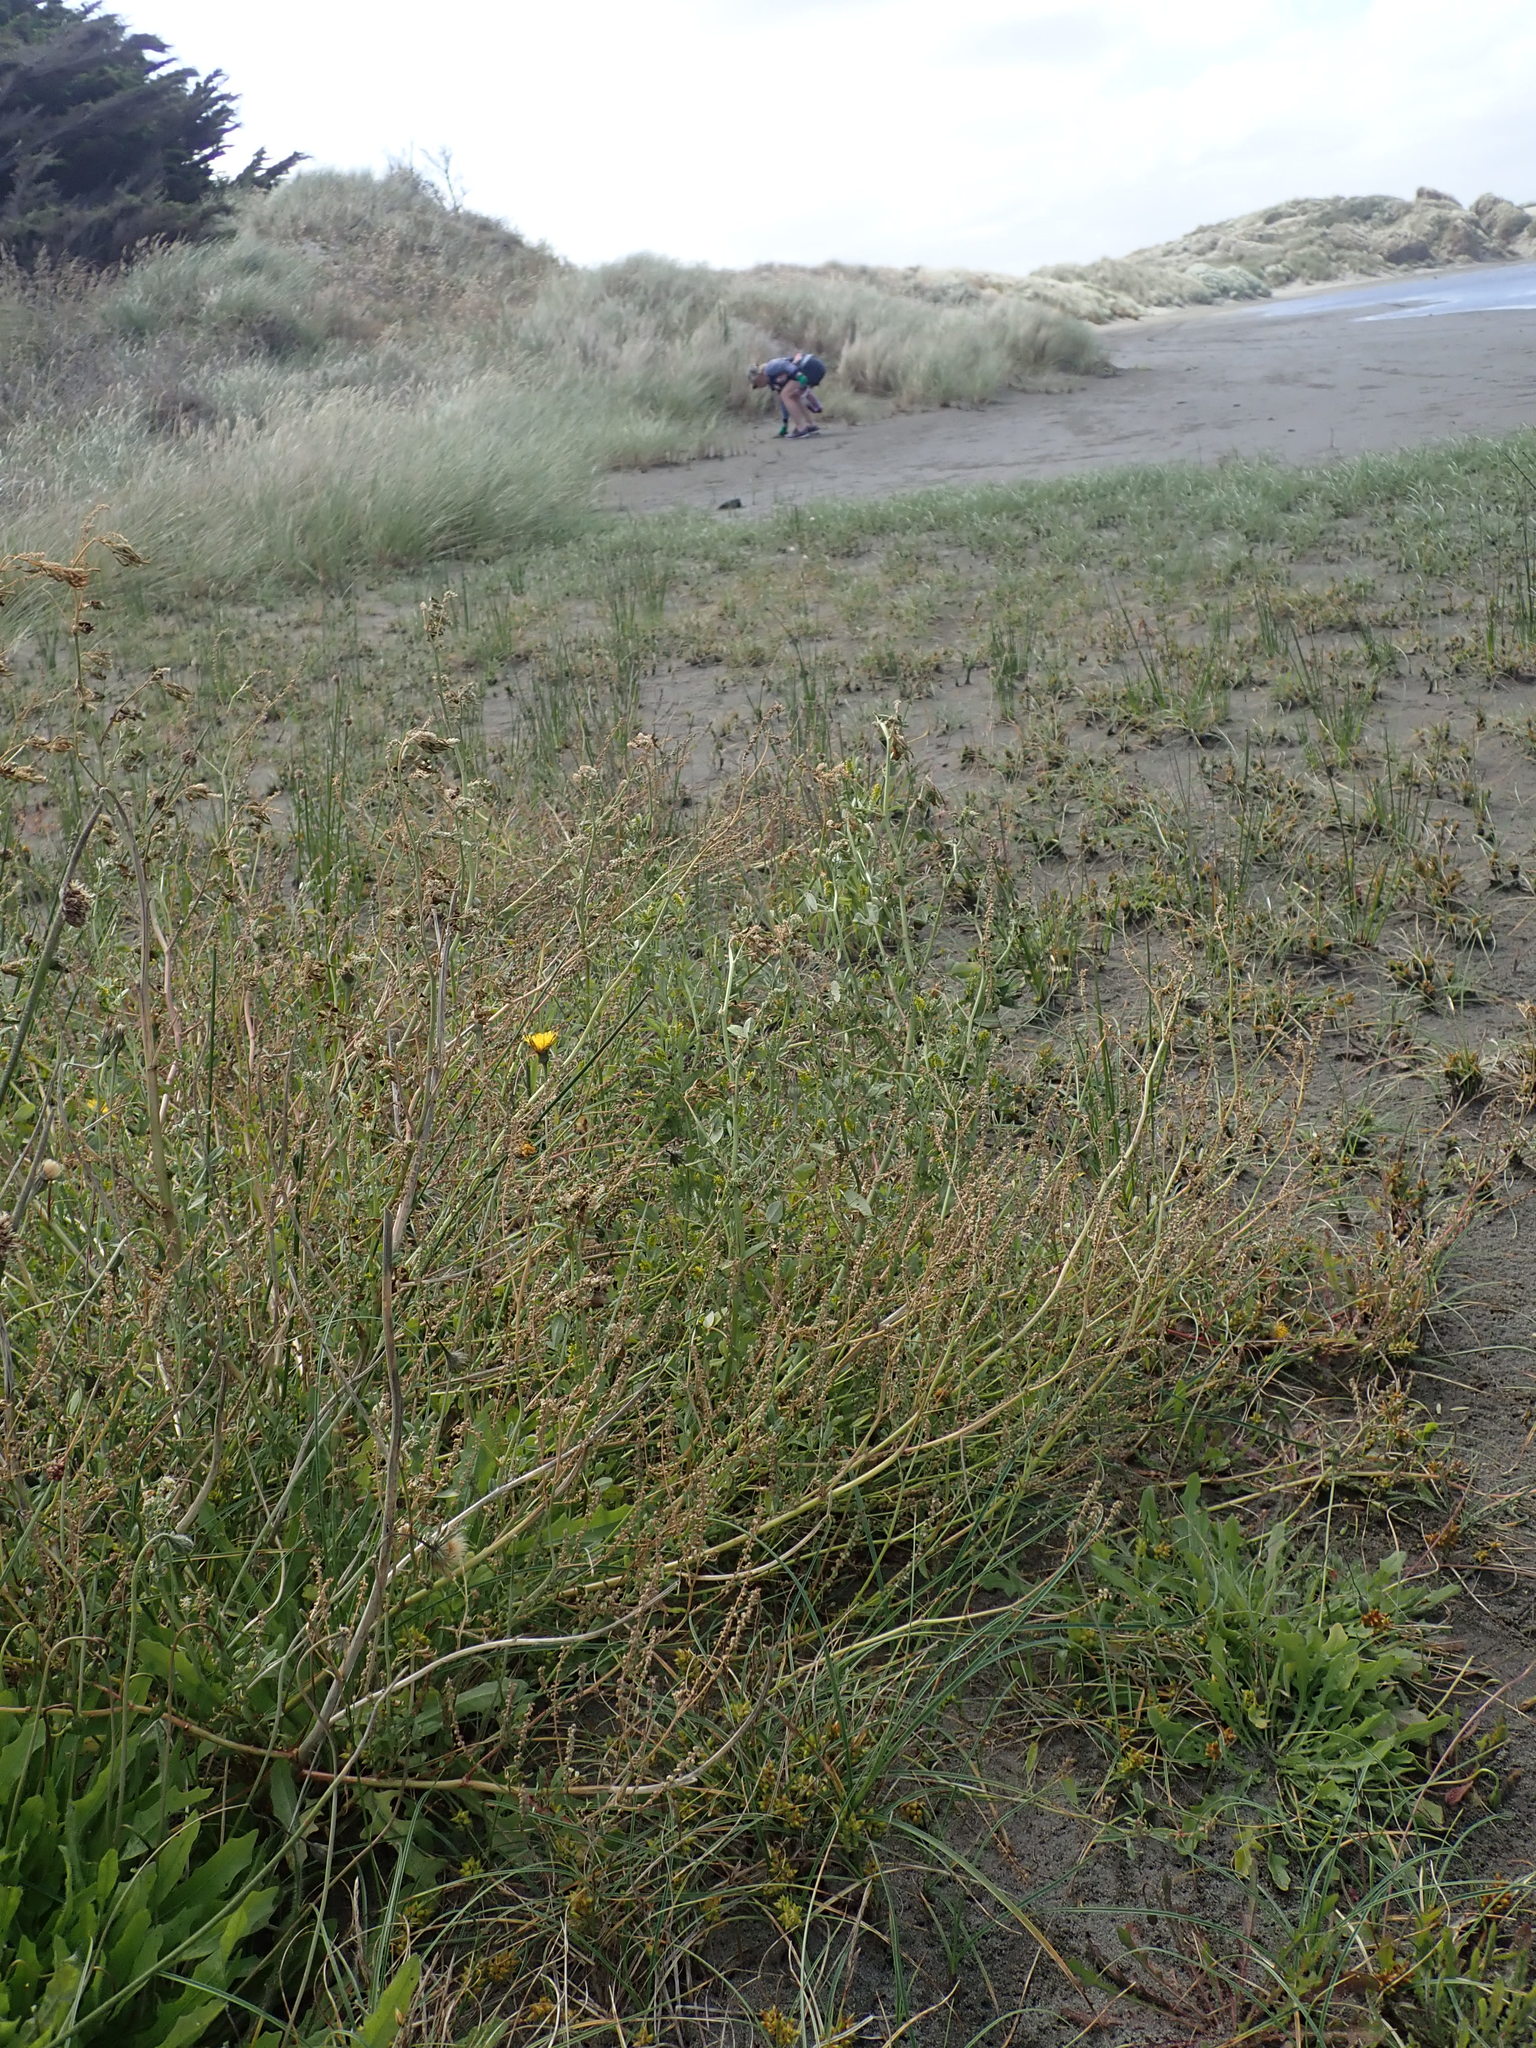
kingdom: Plantae
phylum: Tracheophyta
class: Magnoliopsida
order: Fabales
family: Fabaceae
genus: Melilotus
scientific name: Melilotus indicus
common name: Small melilot
